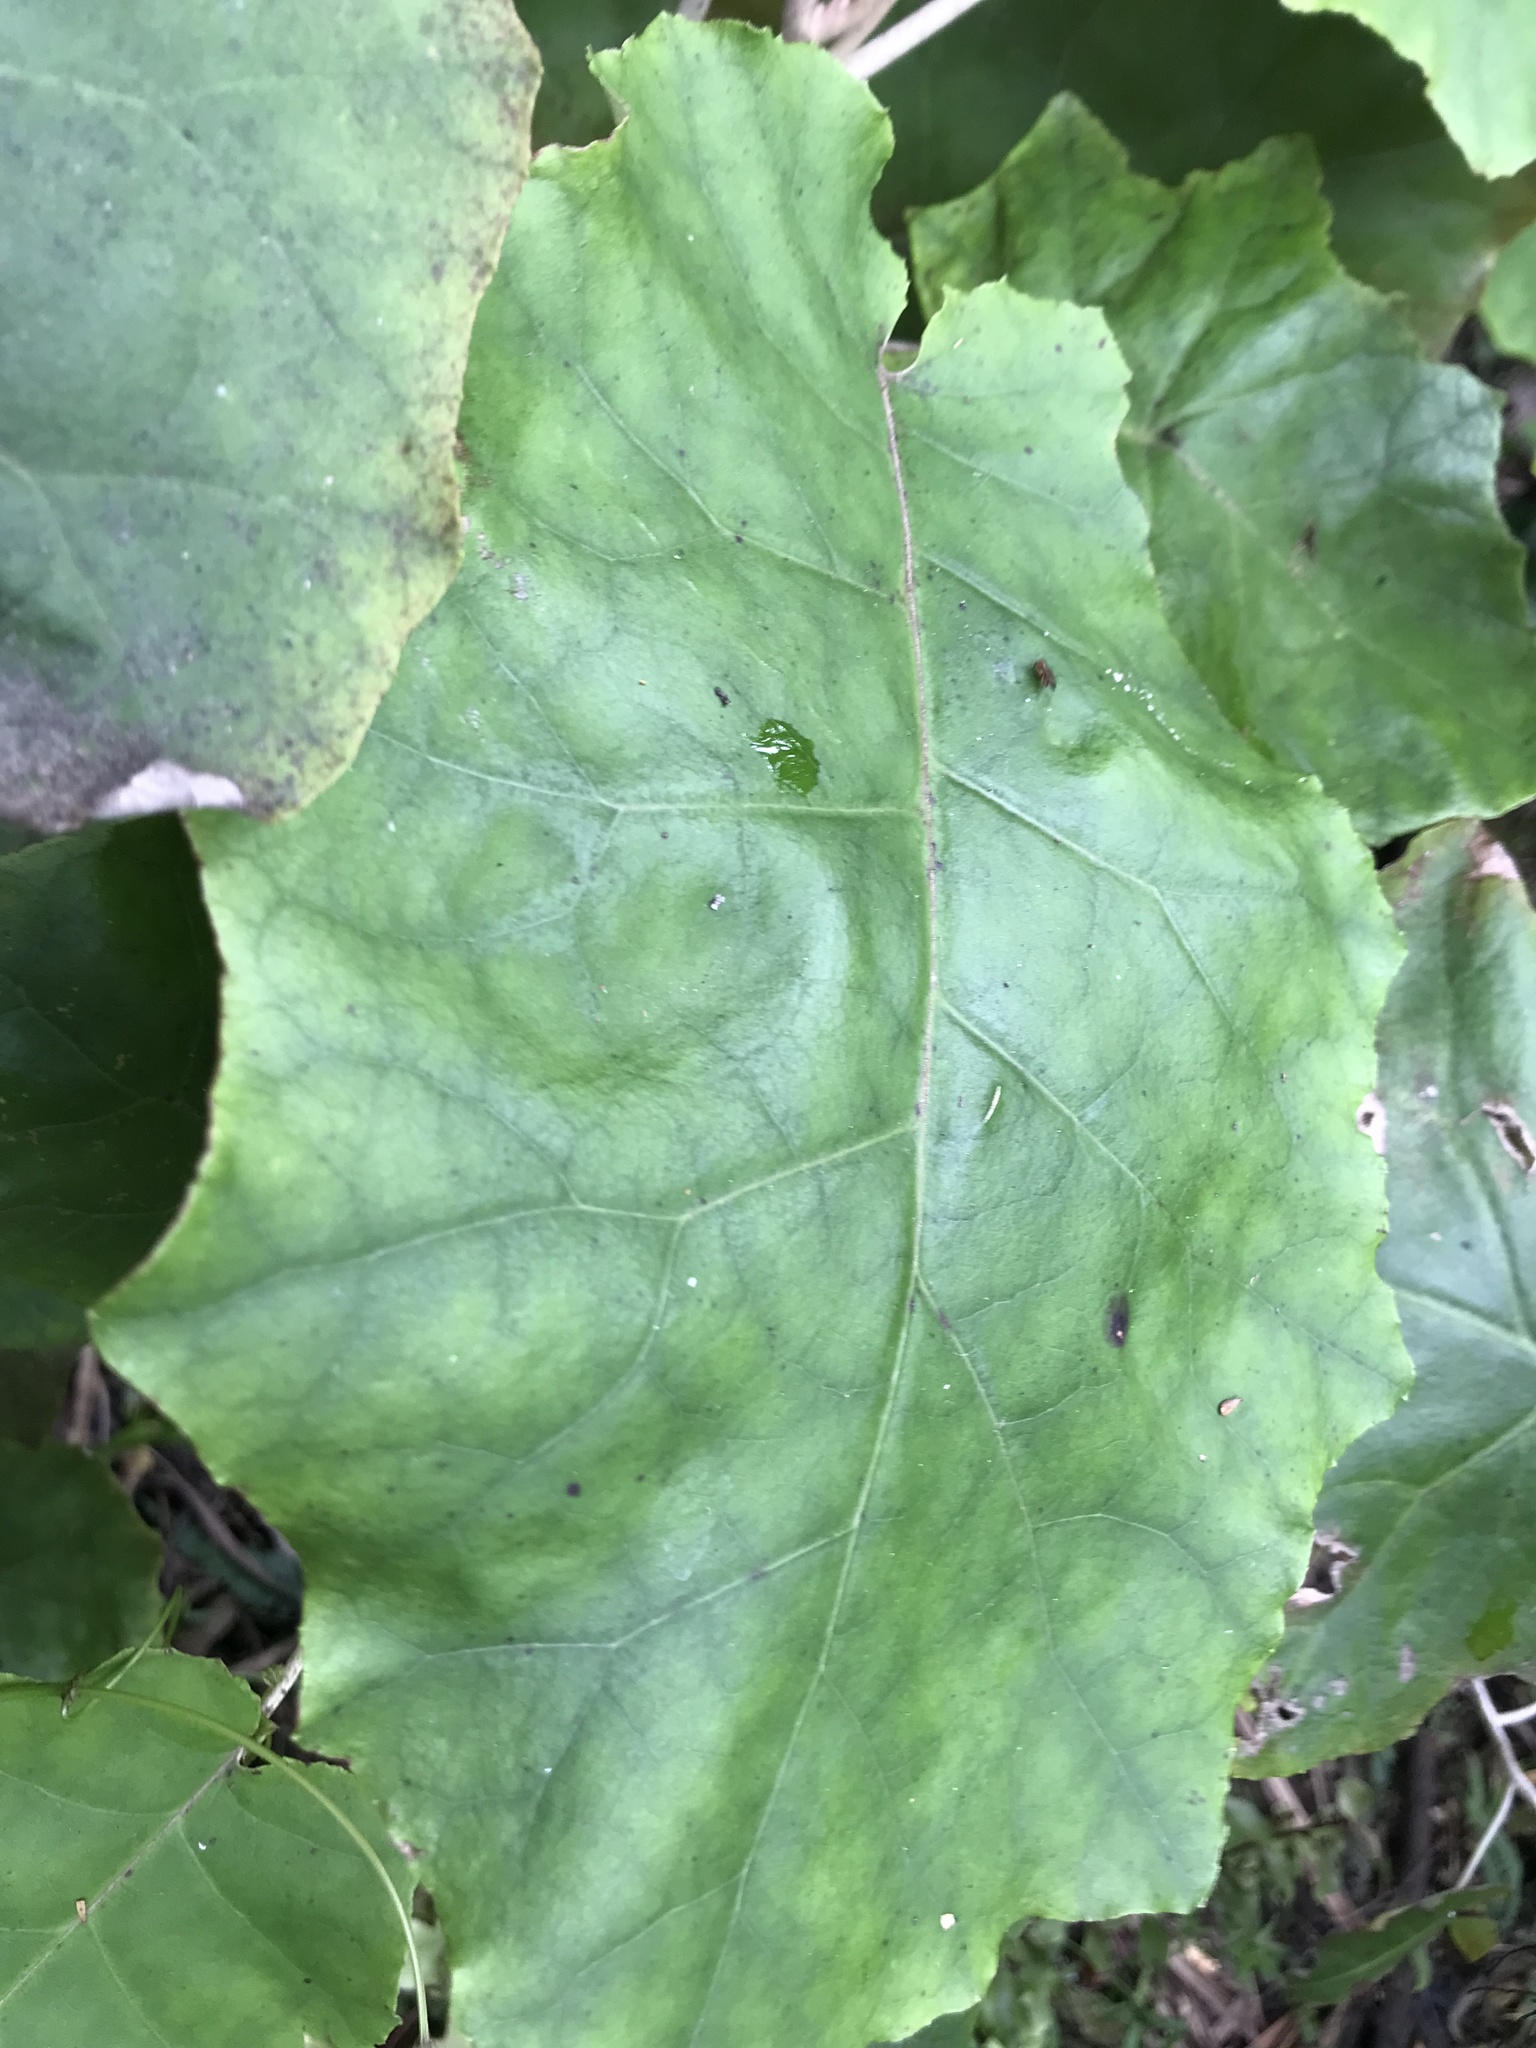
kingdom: Plantae
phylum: Tracheophyta
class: Magnoliopsida
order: Asterales
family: Asteraceae
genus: Brachyglottis
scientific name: Brachyglottis repanda
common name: Hedge ragwort
